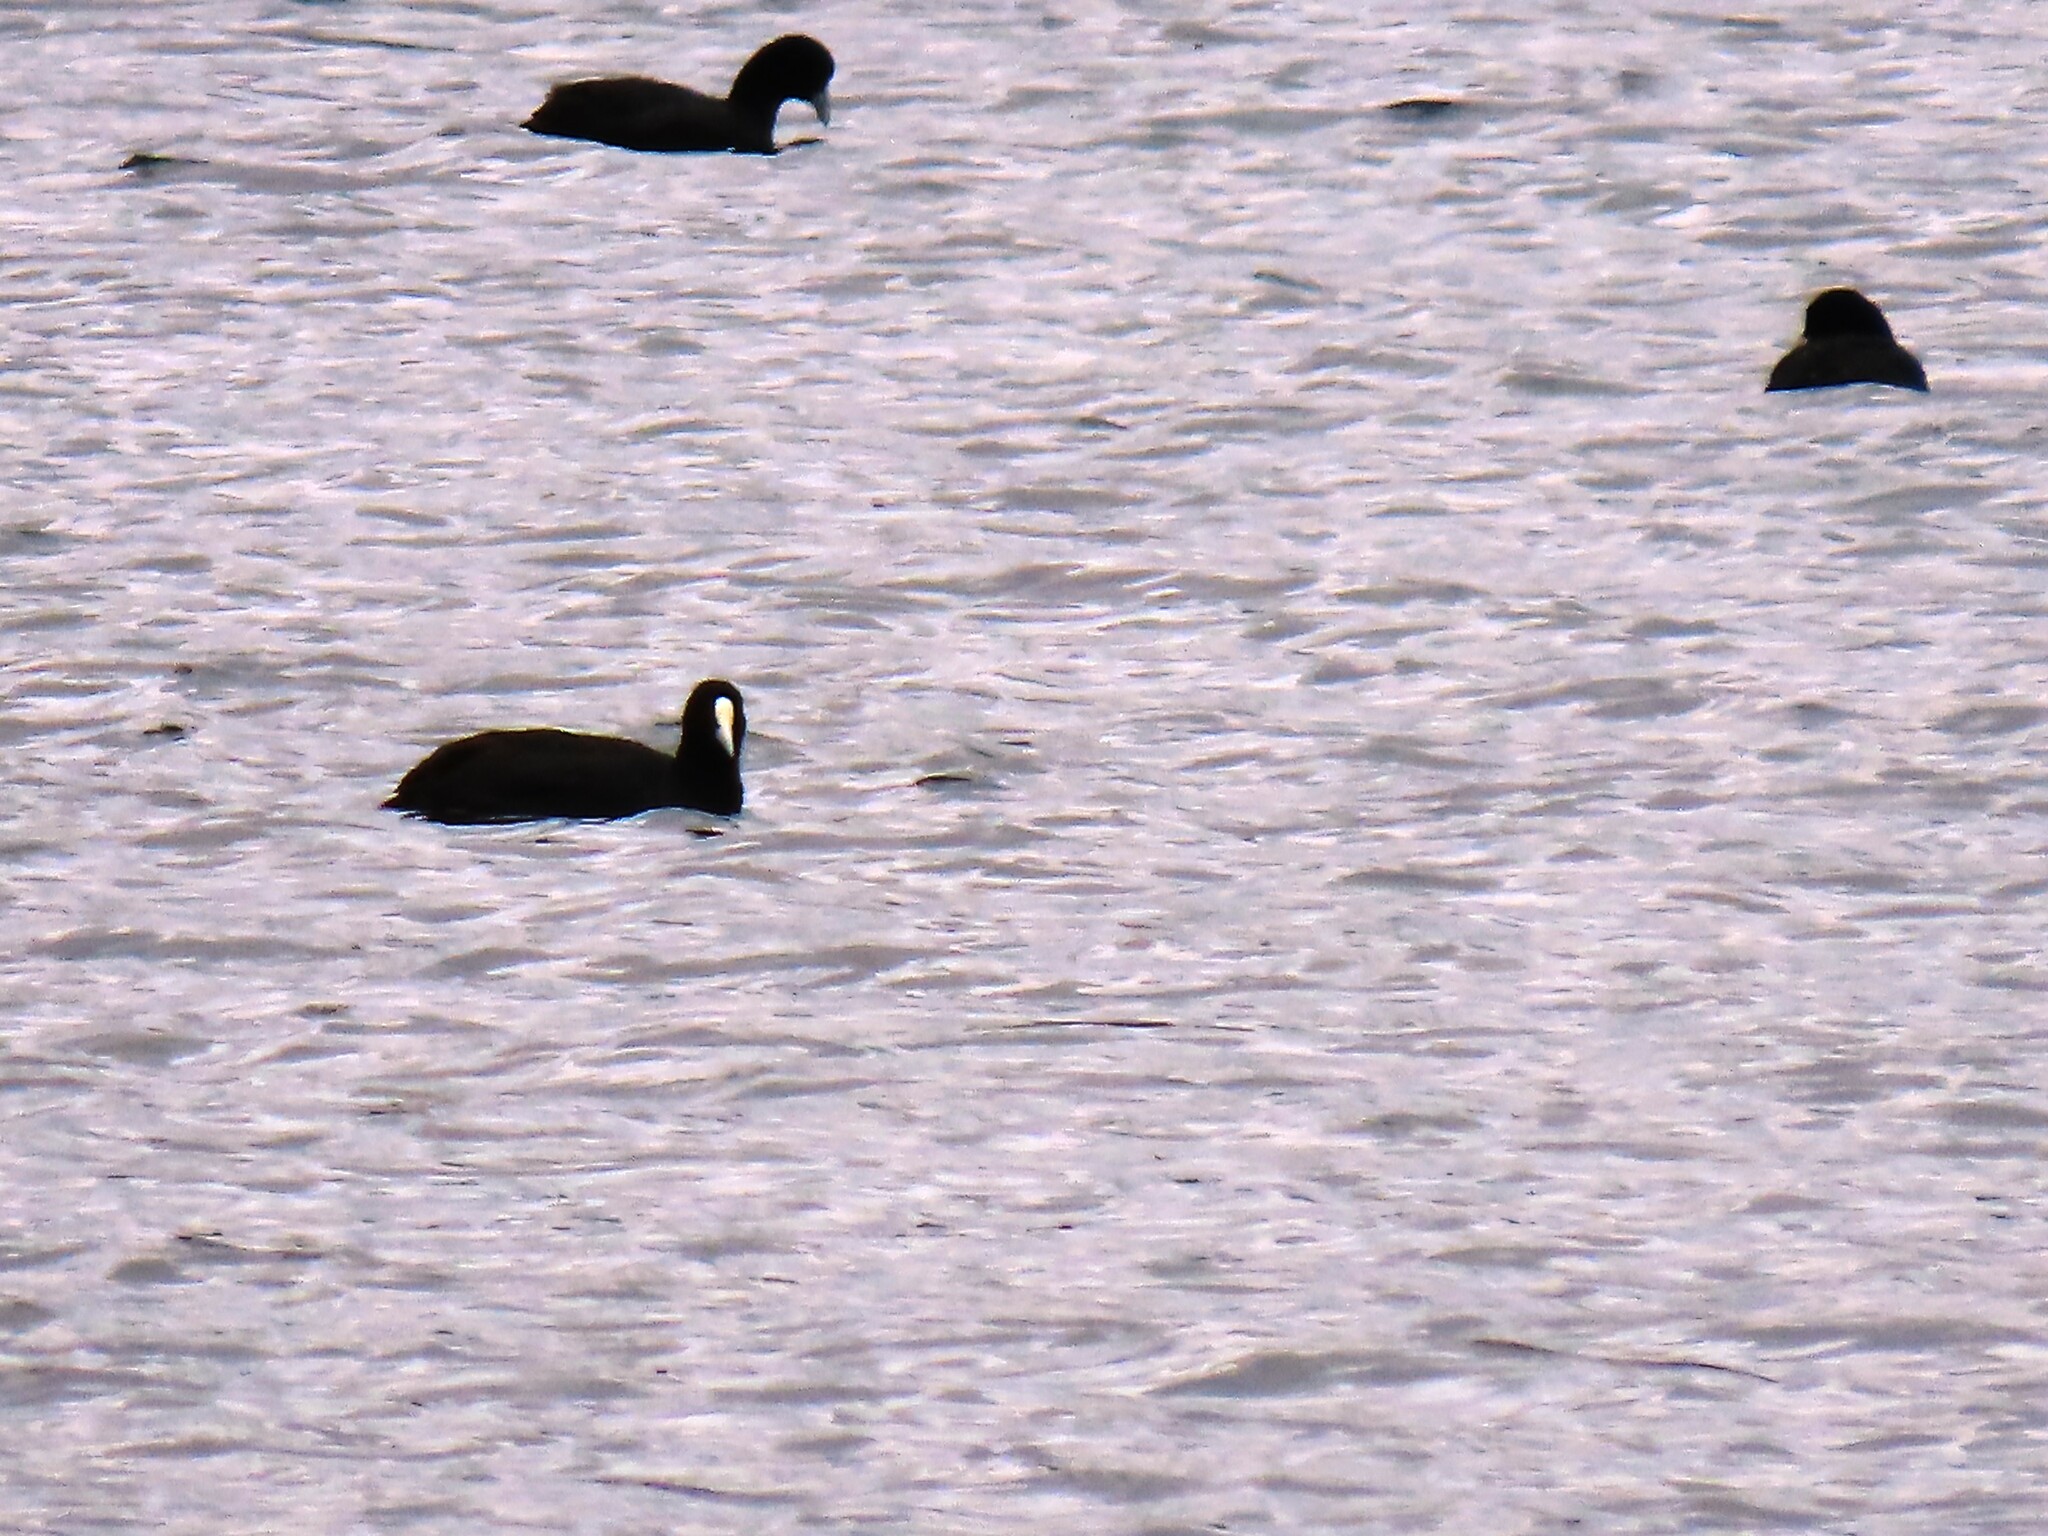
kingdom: Animalia
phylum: Chordata
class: Aves
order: Gruiformes
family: Rallidae
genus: Fulica
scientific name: Fulica atra
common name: Eurasian coot
